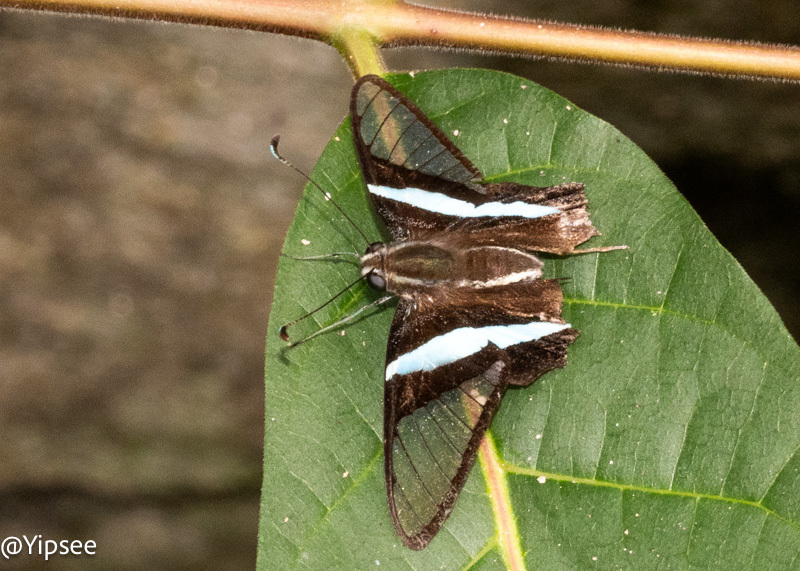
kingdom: Animalia
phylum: Arthropoda
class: Insecta
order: Lepidoptera
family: Papilionidae
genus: Lamproptera
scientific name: Lamproptera meges
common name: Green dragontail
